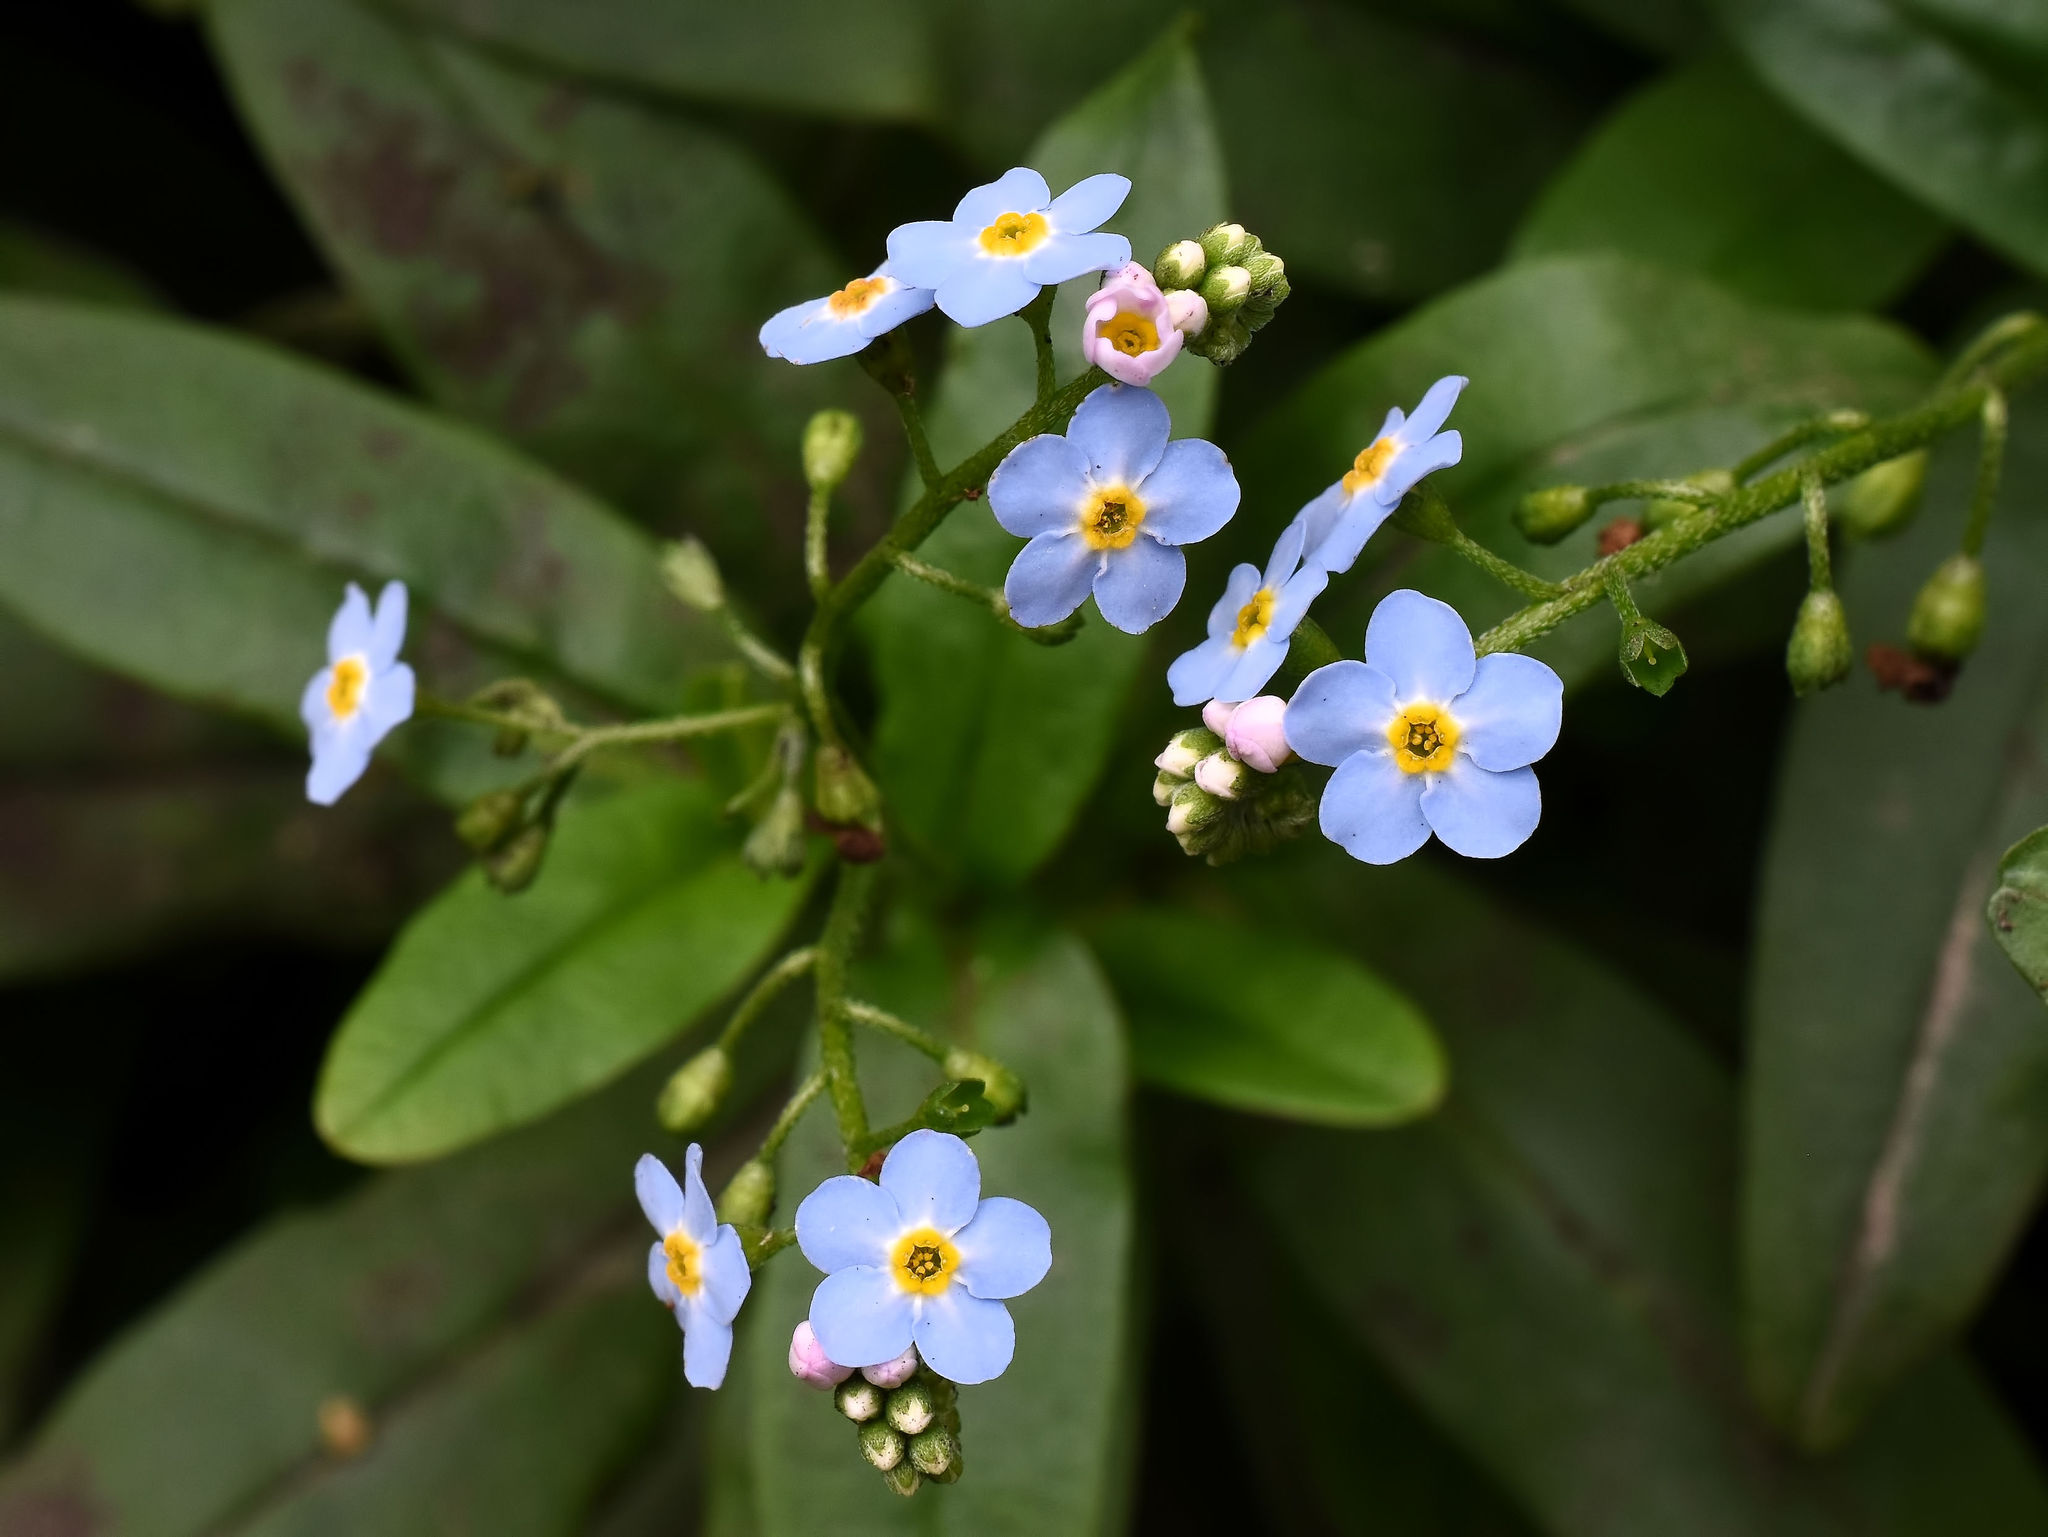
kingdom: Plantae
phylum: Tracheophyta
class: Magnoliopsida
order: Boraginales
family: Boraginaceae
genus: Myosotis
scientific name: Myosotis scorpioides
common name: Water forget-me-not
